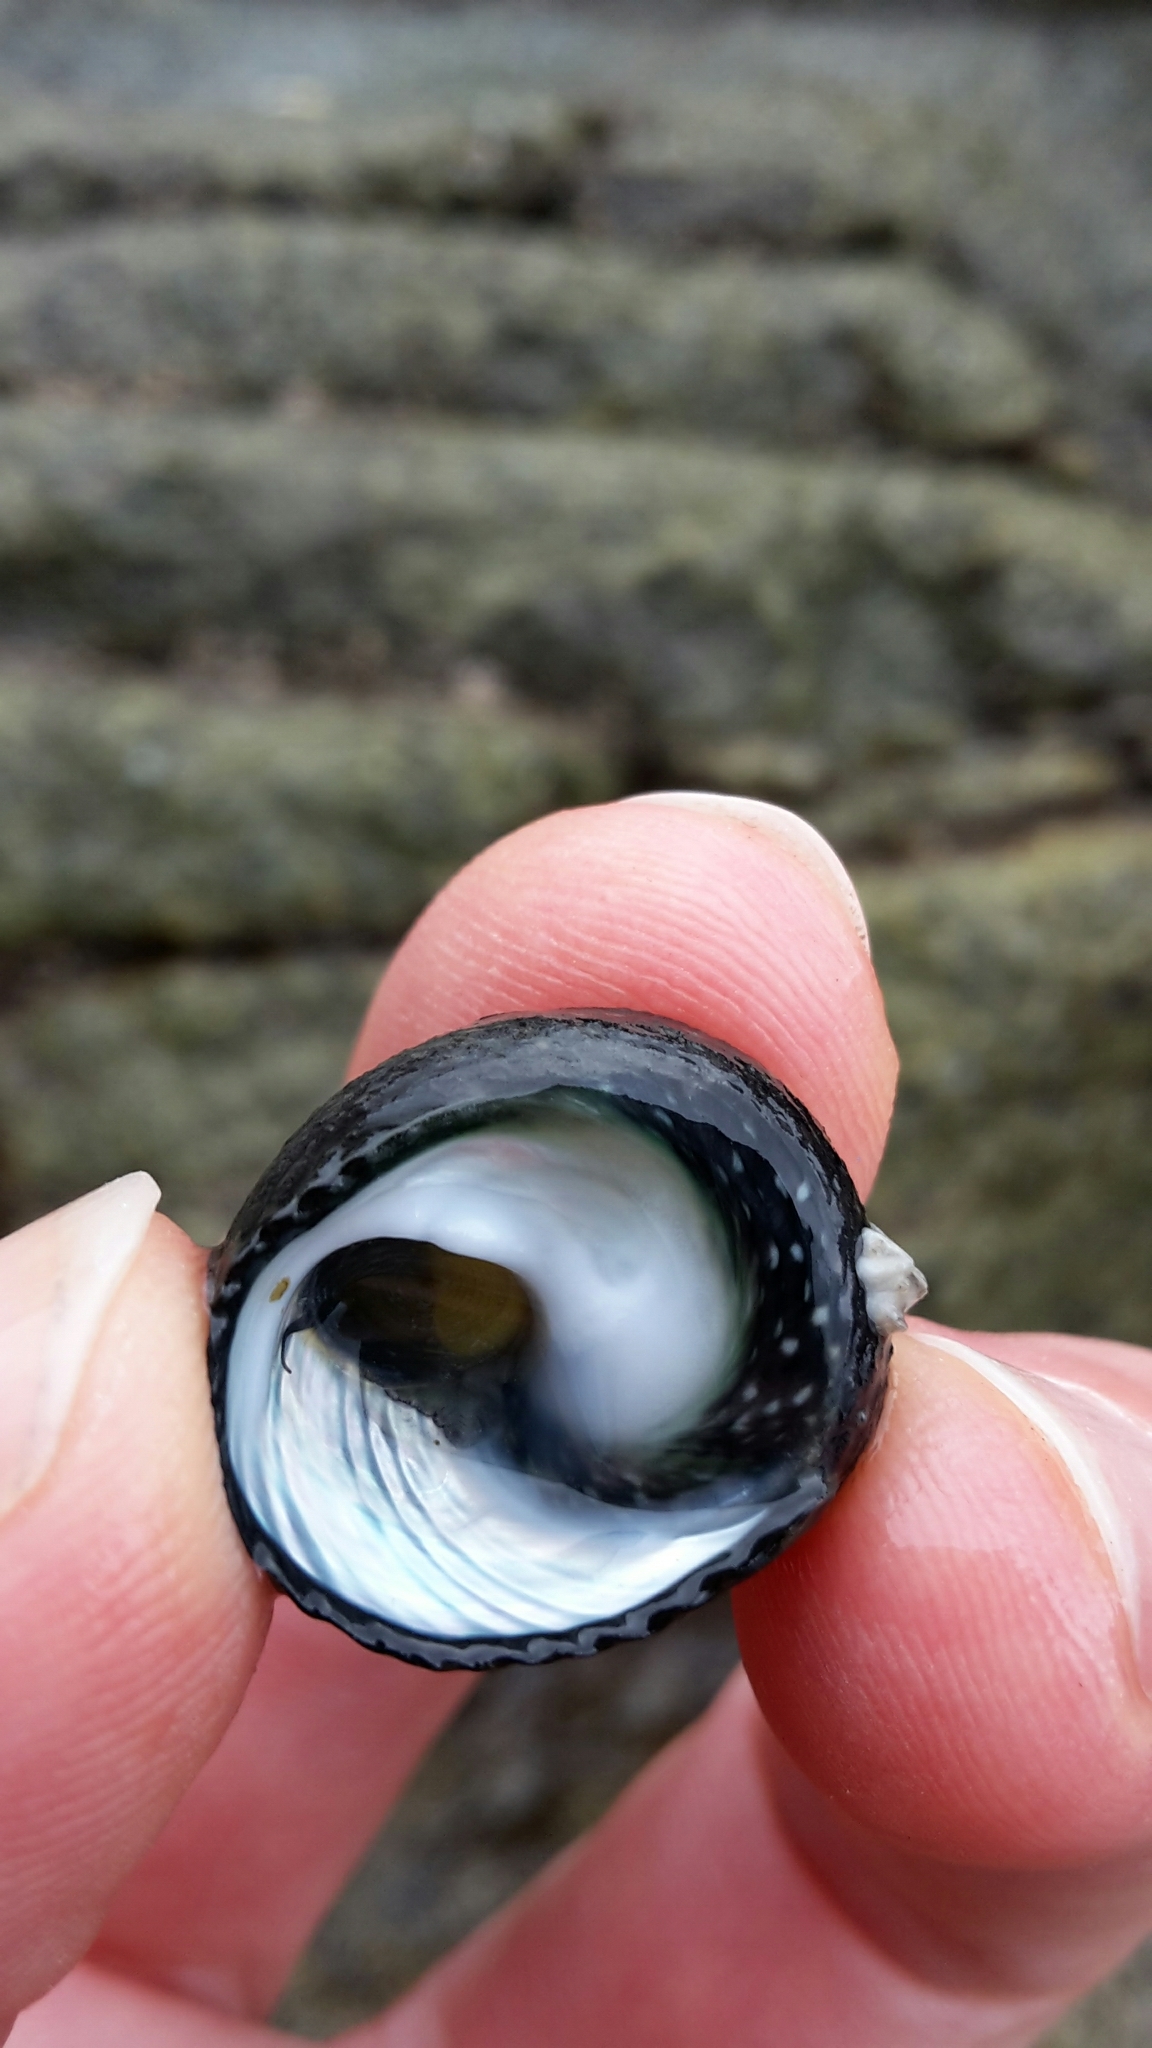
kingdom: Animalia
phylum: Mollusca
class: Gastropoda
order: Trochida
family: Trochidae
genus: Diloma
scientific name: Diloma zelandicum
